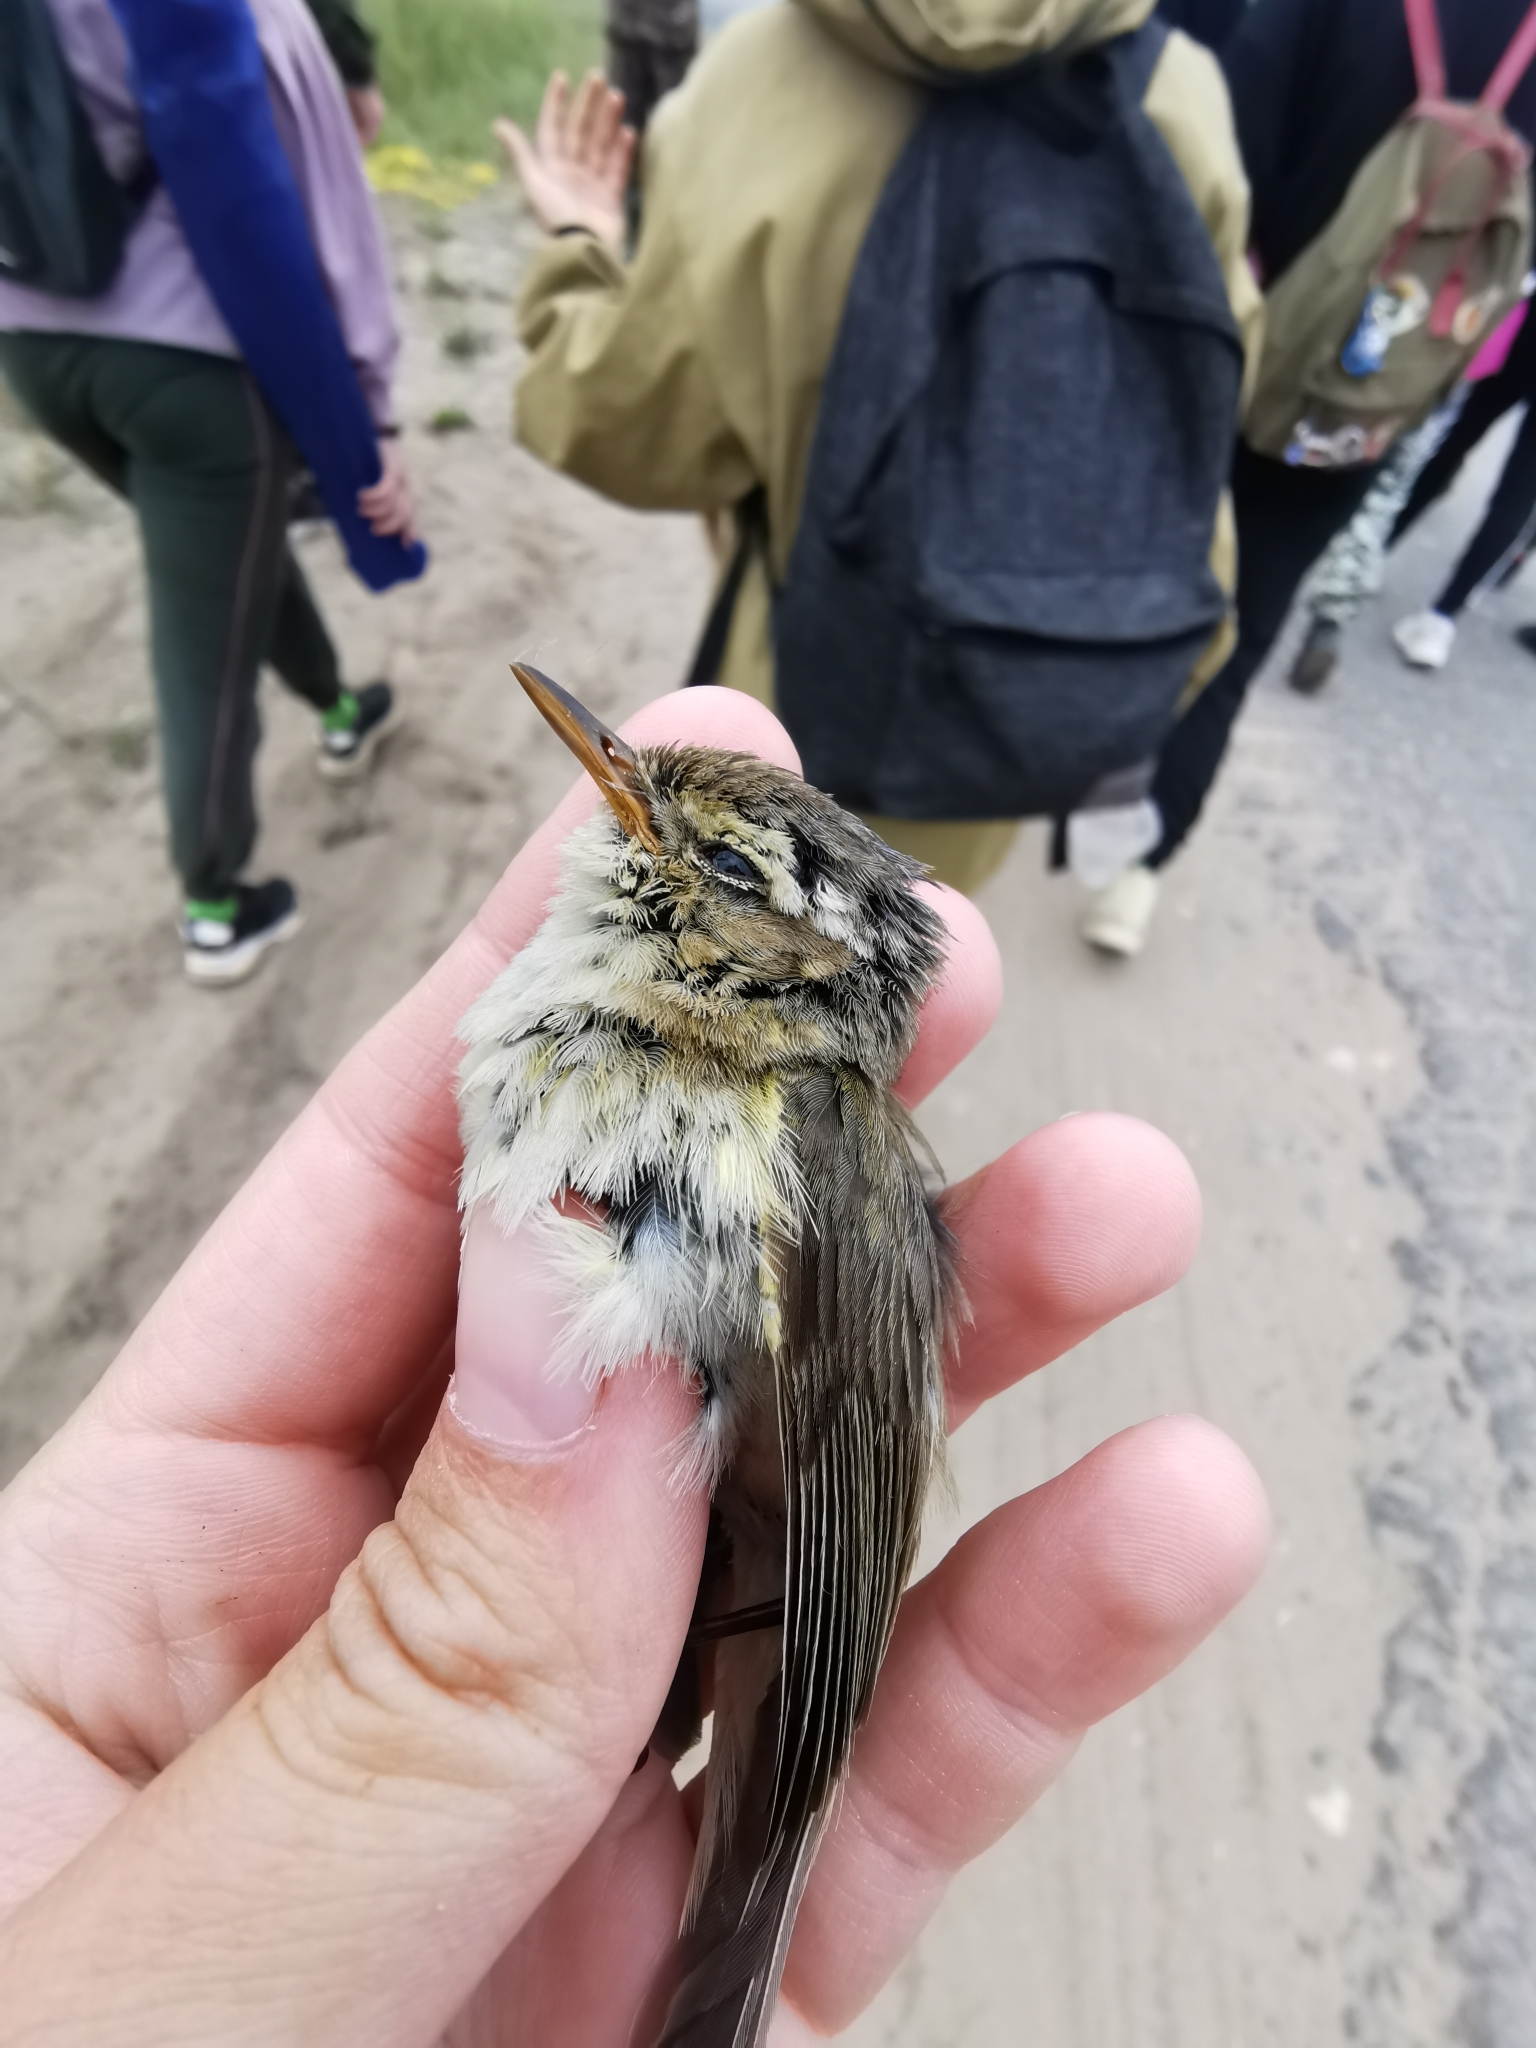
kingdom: Animalia
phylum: Chordata
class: Aves
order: Passeriformes
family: Phylloscopidae
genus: Phylloscopus
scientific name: Phylloscopus trochilus
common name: Willow warbler
